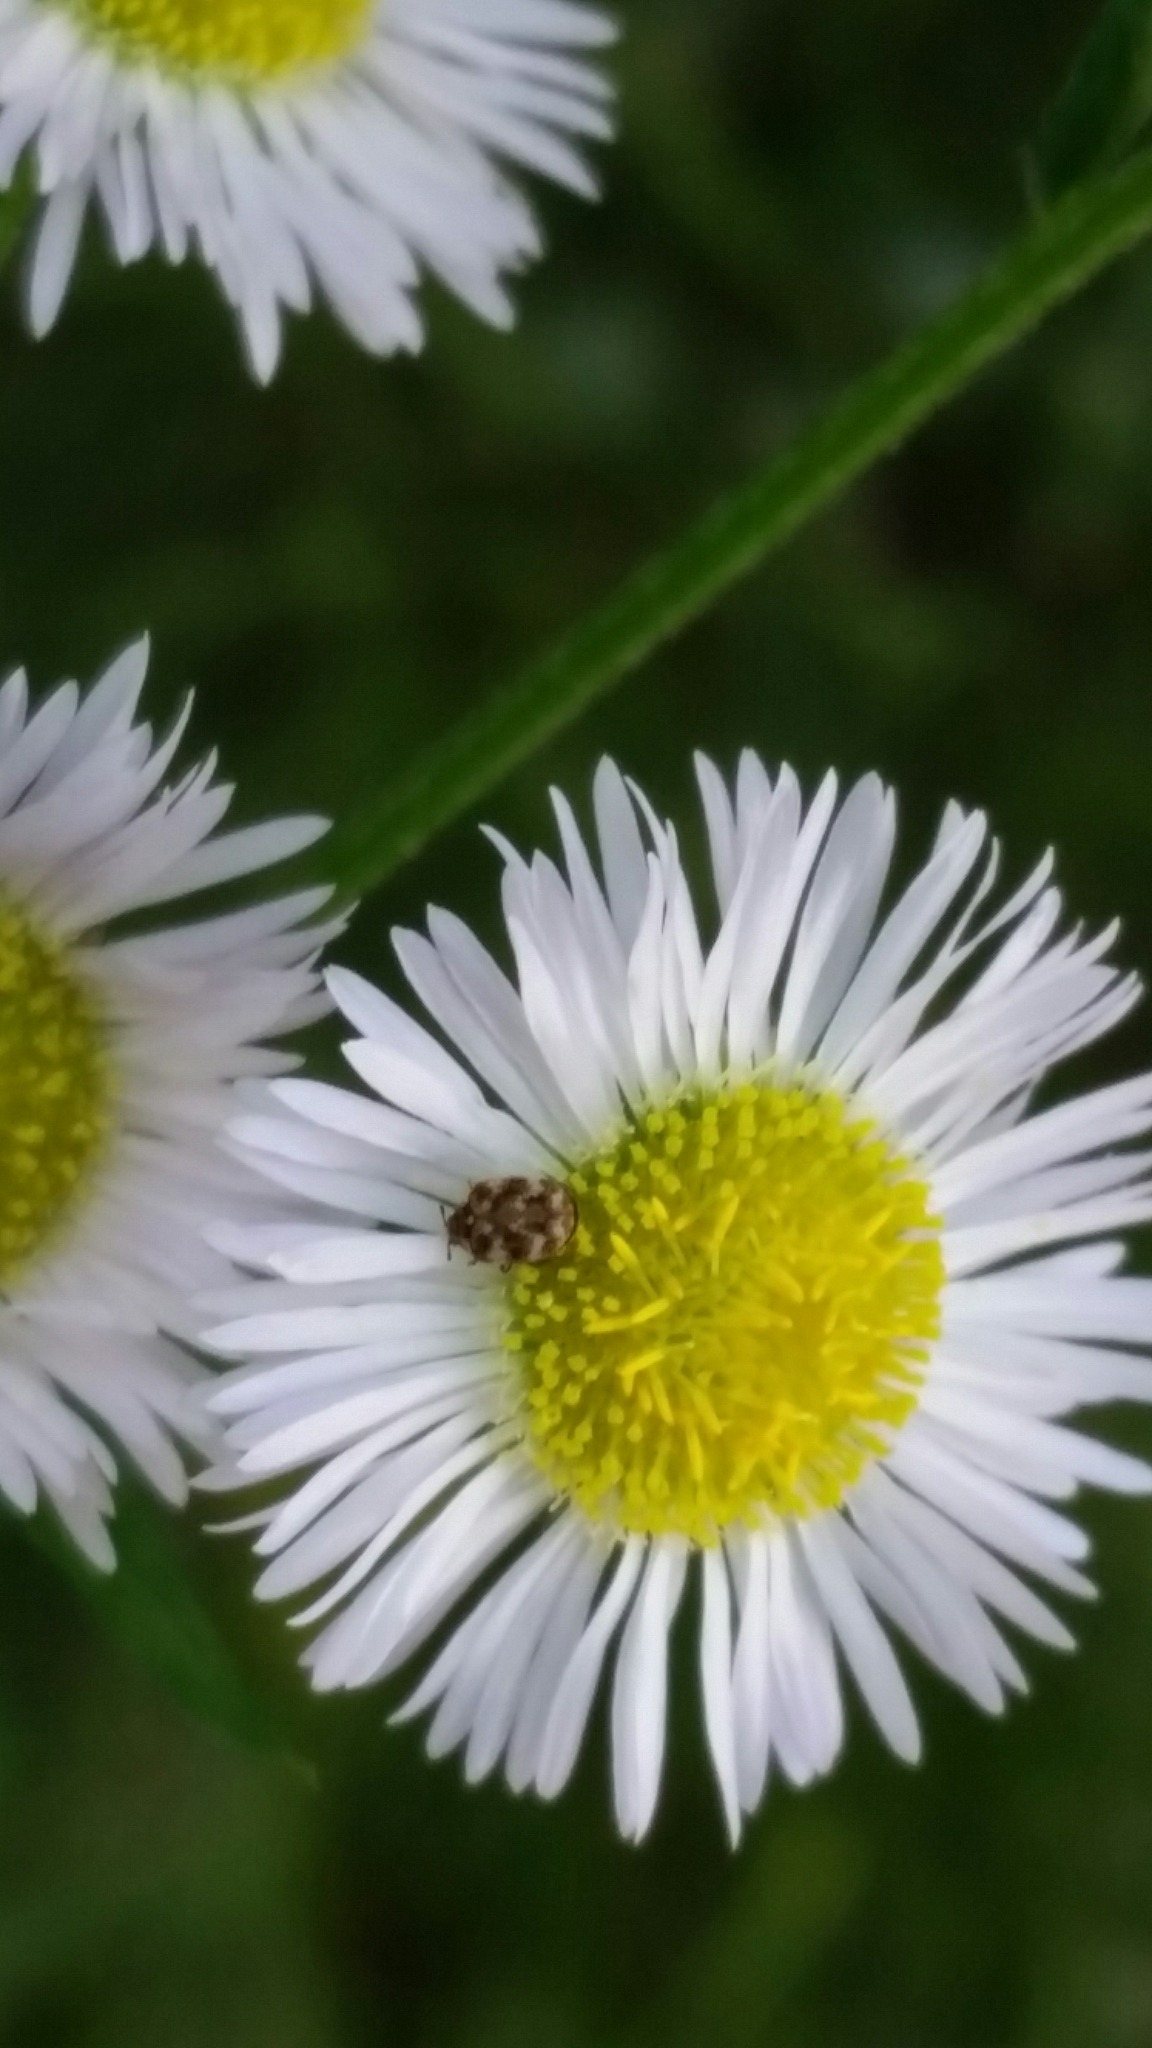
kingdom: Animalia
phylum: Arthropoda
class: Insecta
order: Coleoptera
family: Dermestidae
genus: Anthrenus
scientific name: Anthrenus verbasci
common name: Varied carpet beetle
